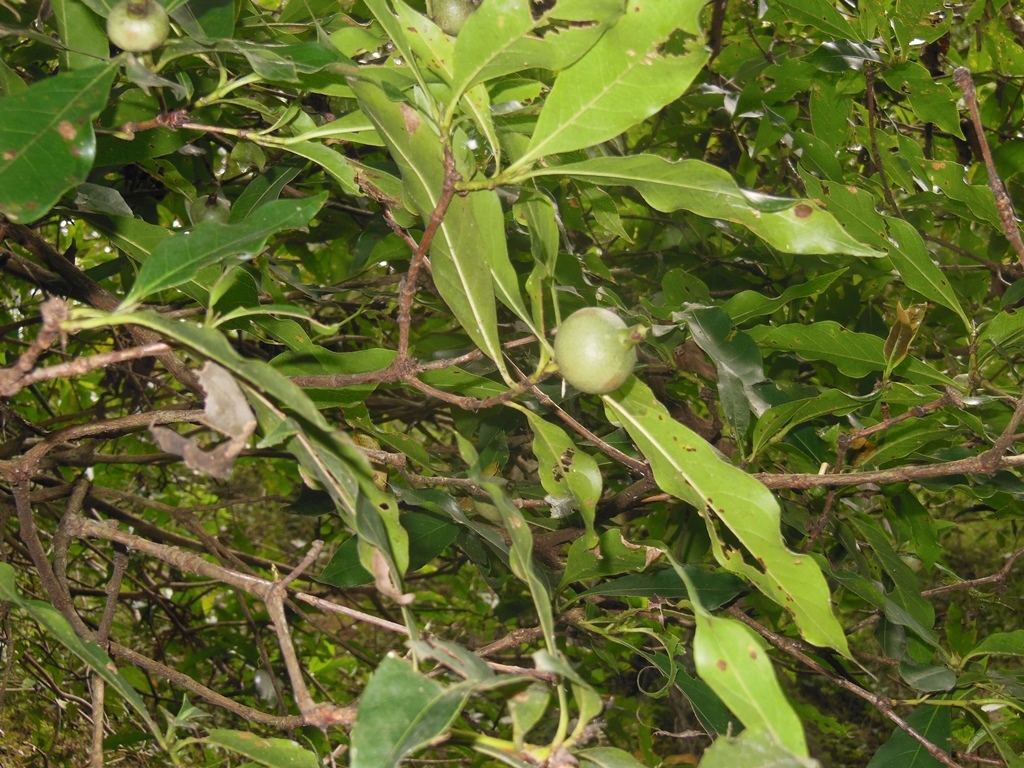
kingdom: Plantae
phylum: Tracheophyta
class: Magnoliopsida
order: Gentianales
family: Rubiaceae
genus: Alibertia
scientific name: Alibertia edulis
